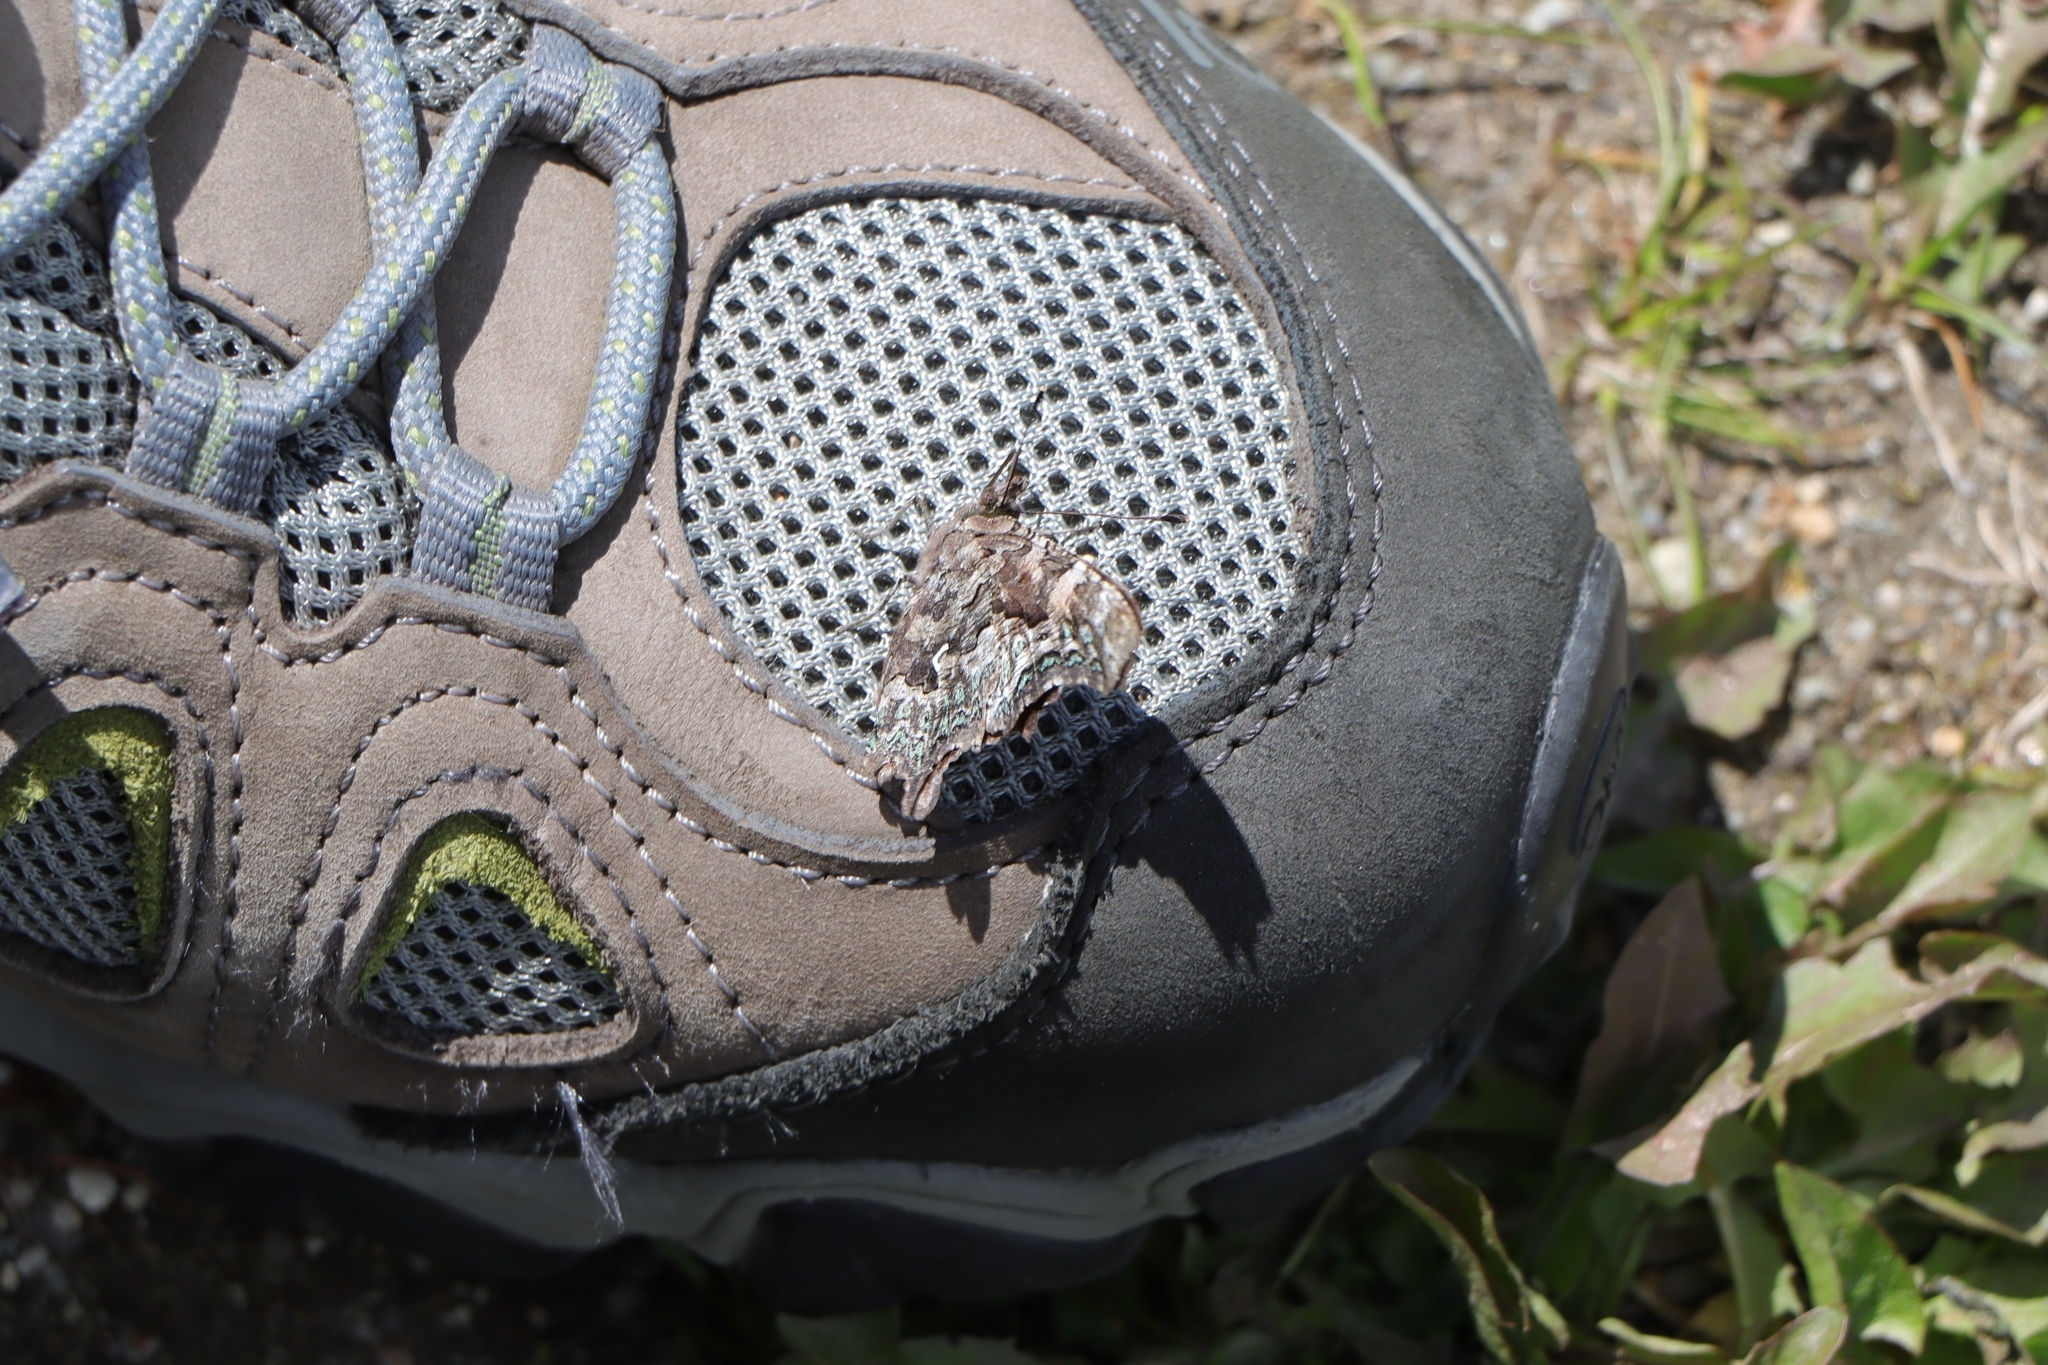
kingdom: Animalia
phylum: Arthropoda
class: Insecta
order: Lepidoptera
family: Nymphalidae
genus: Polygonia
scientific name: Polygonia faunus
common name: Green comma
